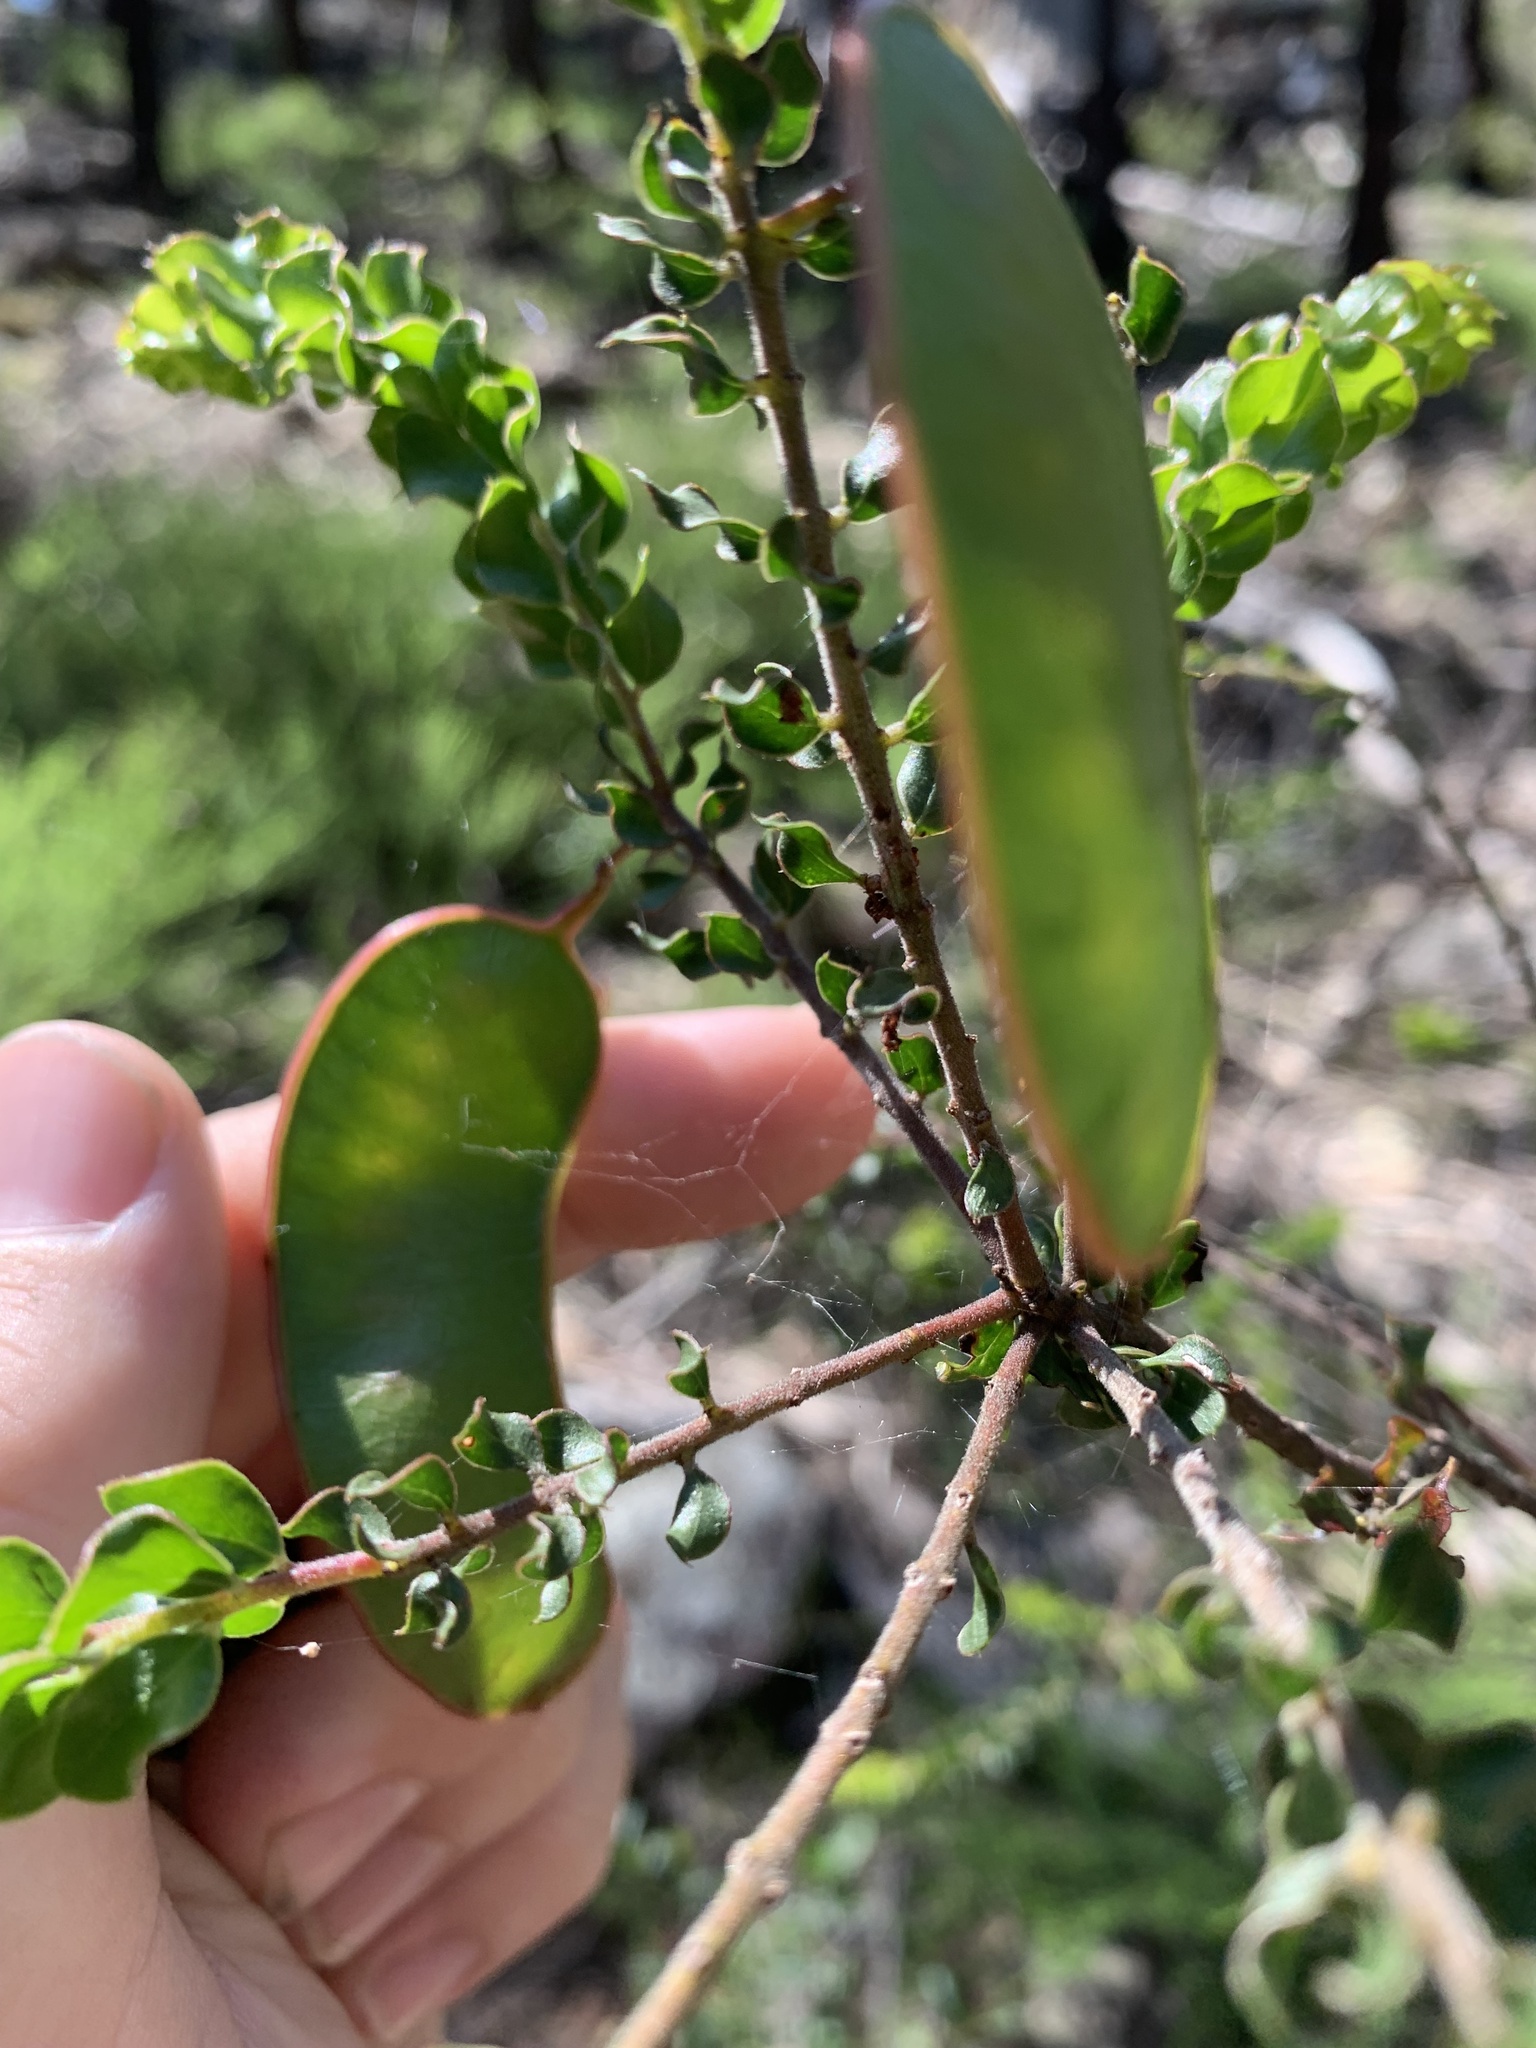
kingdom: Plantae
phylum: Tracheophyta
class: Magnoliopsida
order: Fabales
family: Fabaceae
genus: Acacia
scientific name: Acacia clandullensis
